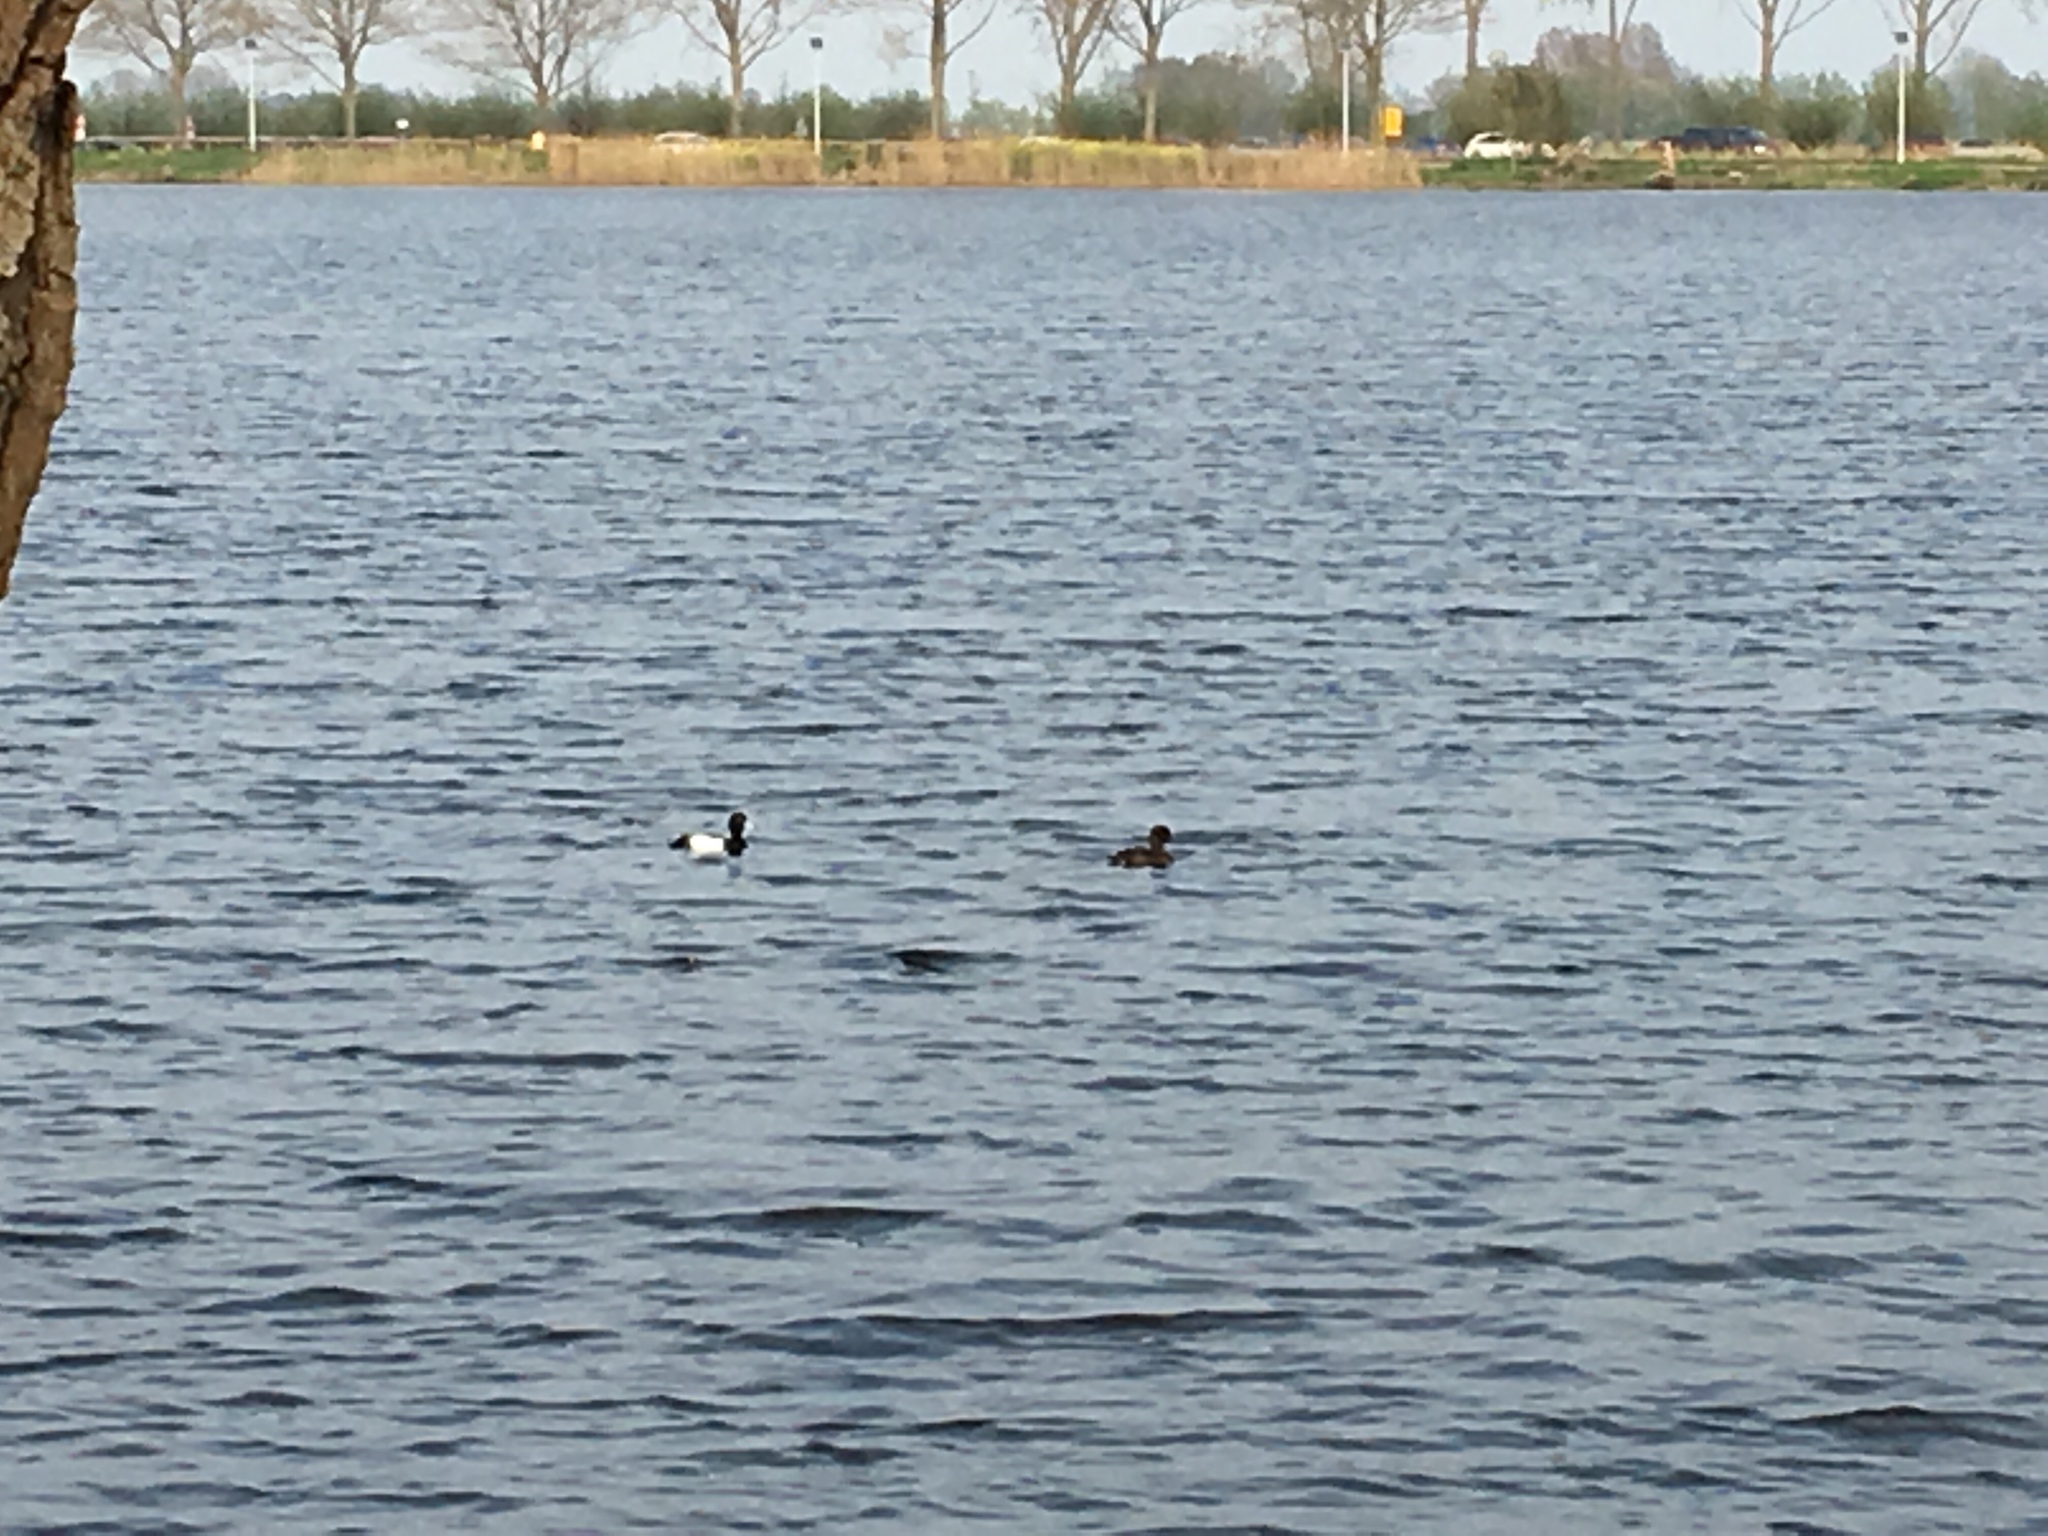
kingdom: Animalia
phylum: Chordata
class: Aves
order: Anseriformes
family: Anatidae
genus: Aythya
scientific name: Aythya fuligula
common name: Tufted duck
